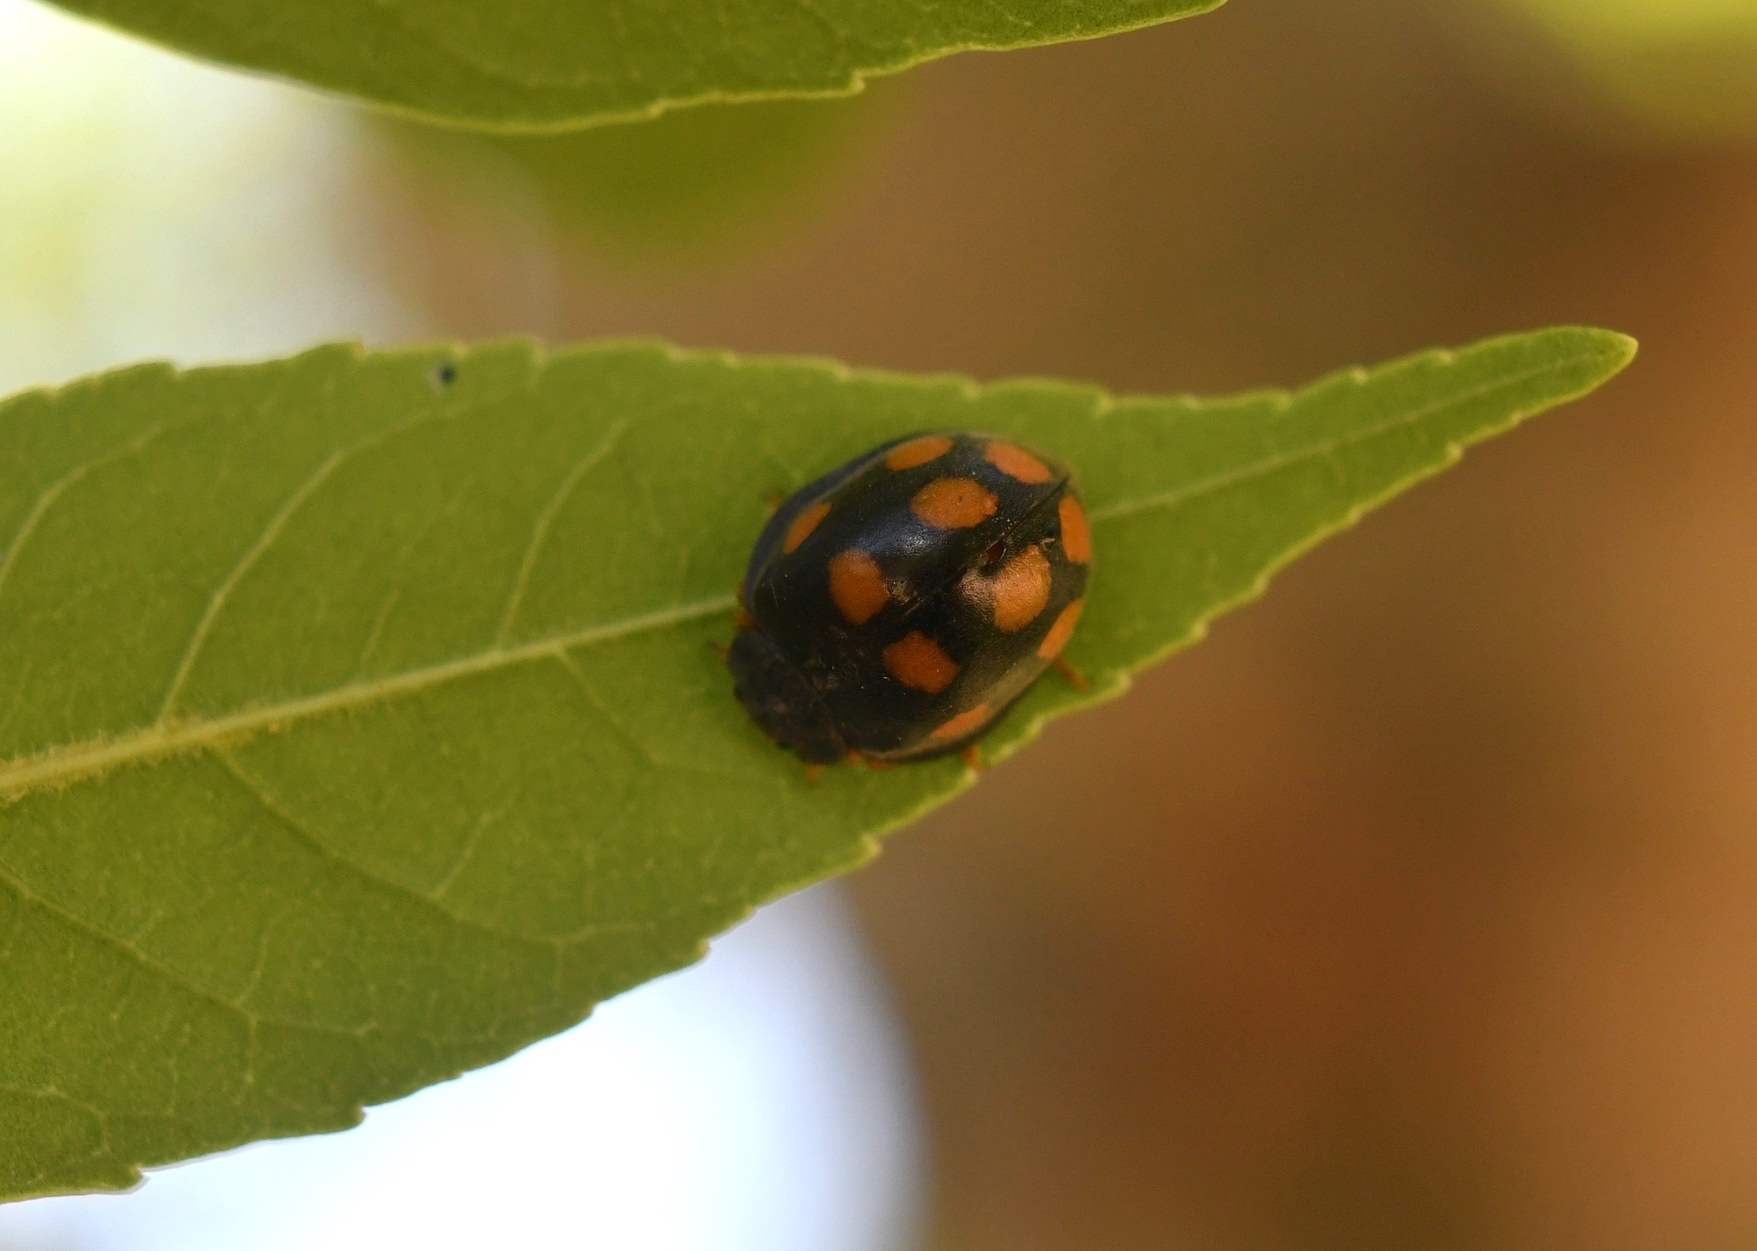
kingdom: Animalia
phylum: Arthropoda
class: Insecta
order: Coleoptera
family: Coccinellidae
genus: Epilachna
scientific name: Epilachna
